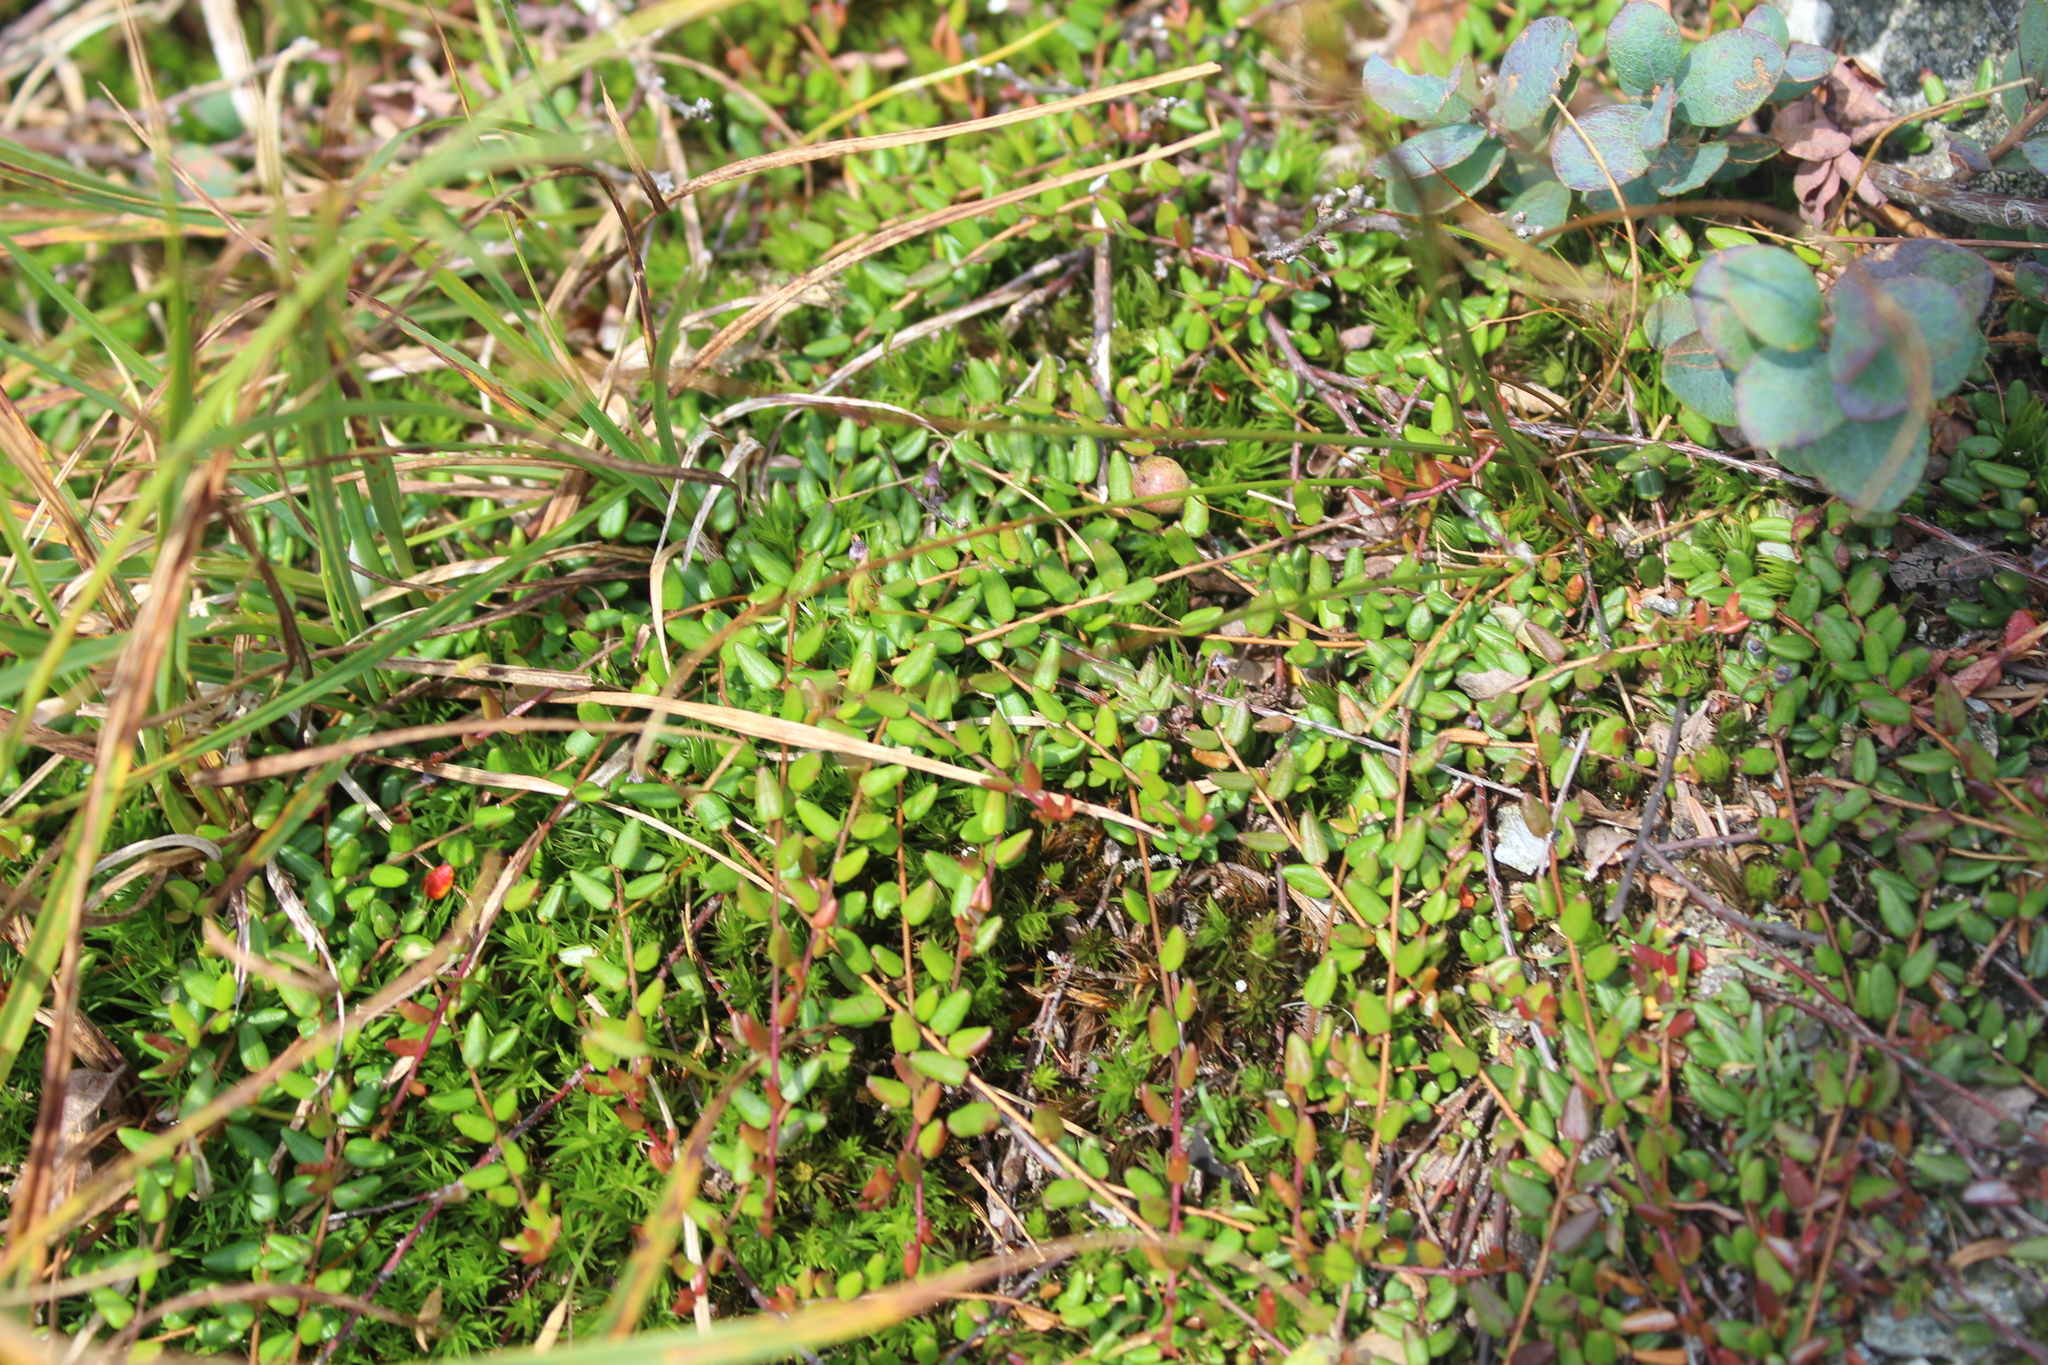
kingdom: Plantae
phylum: Tracheophyta
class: Magnoliopsida
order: Ericales
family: Ericaceae
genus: Vaccinium
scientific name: Vaccinium oxycoccos
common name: Cranberry
